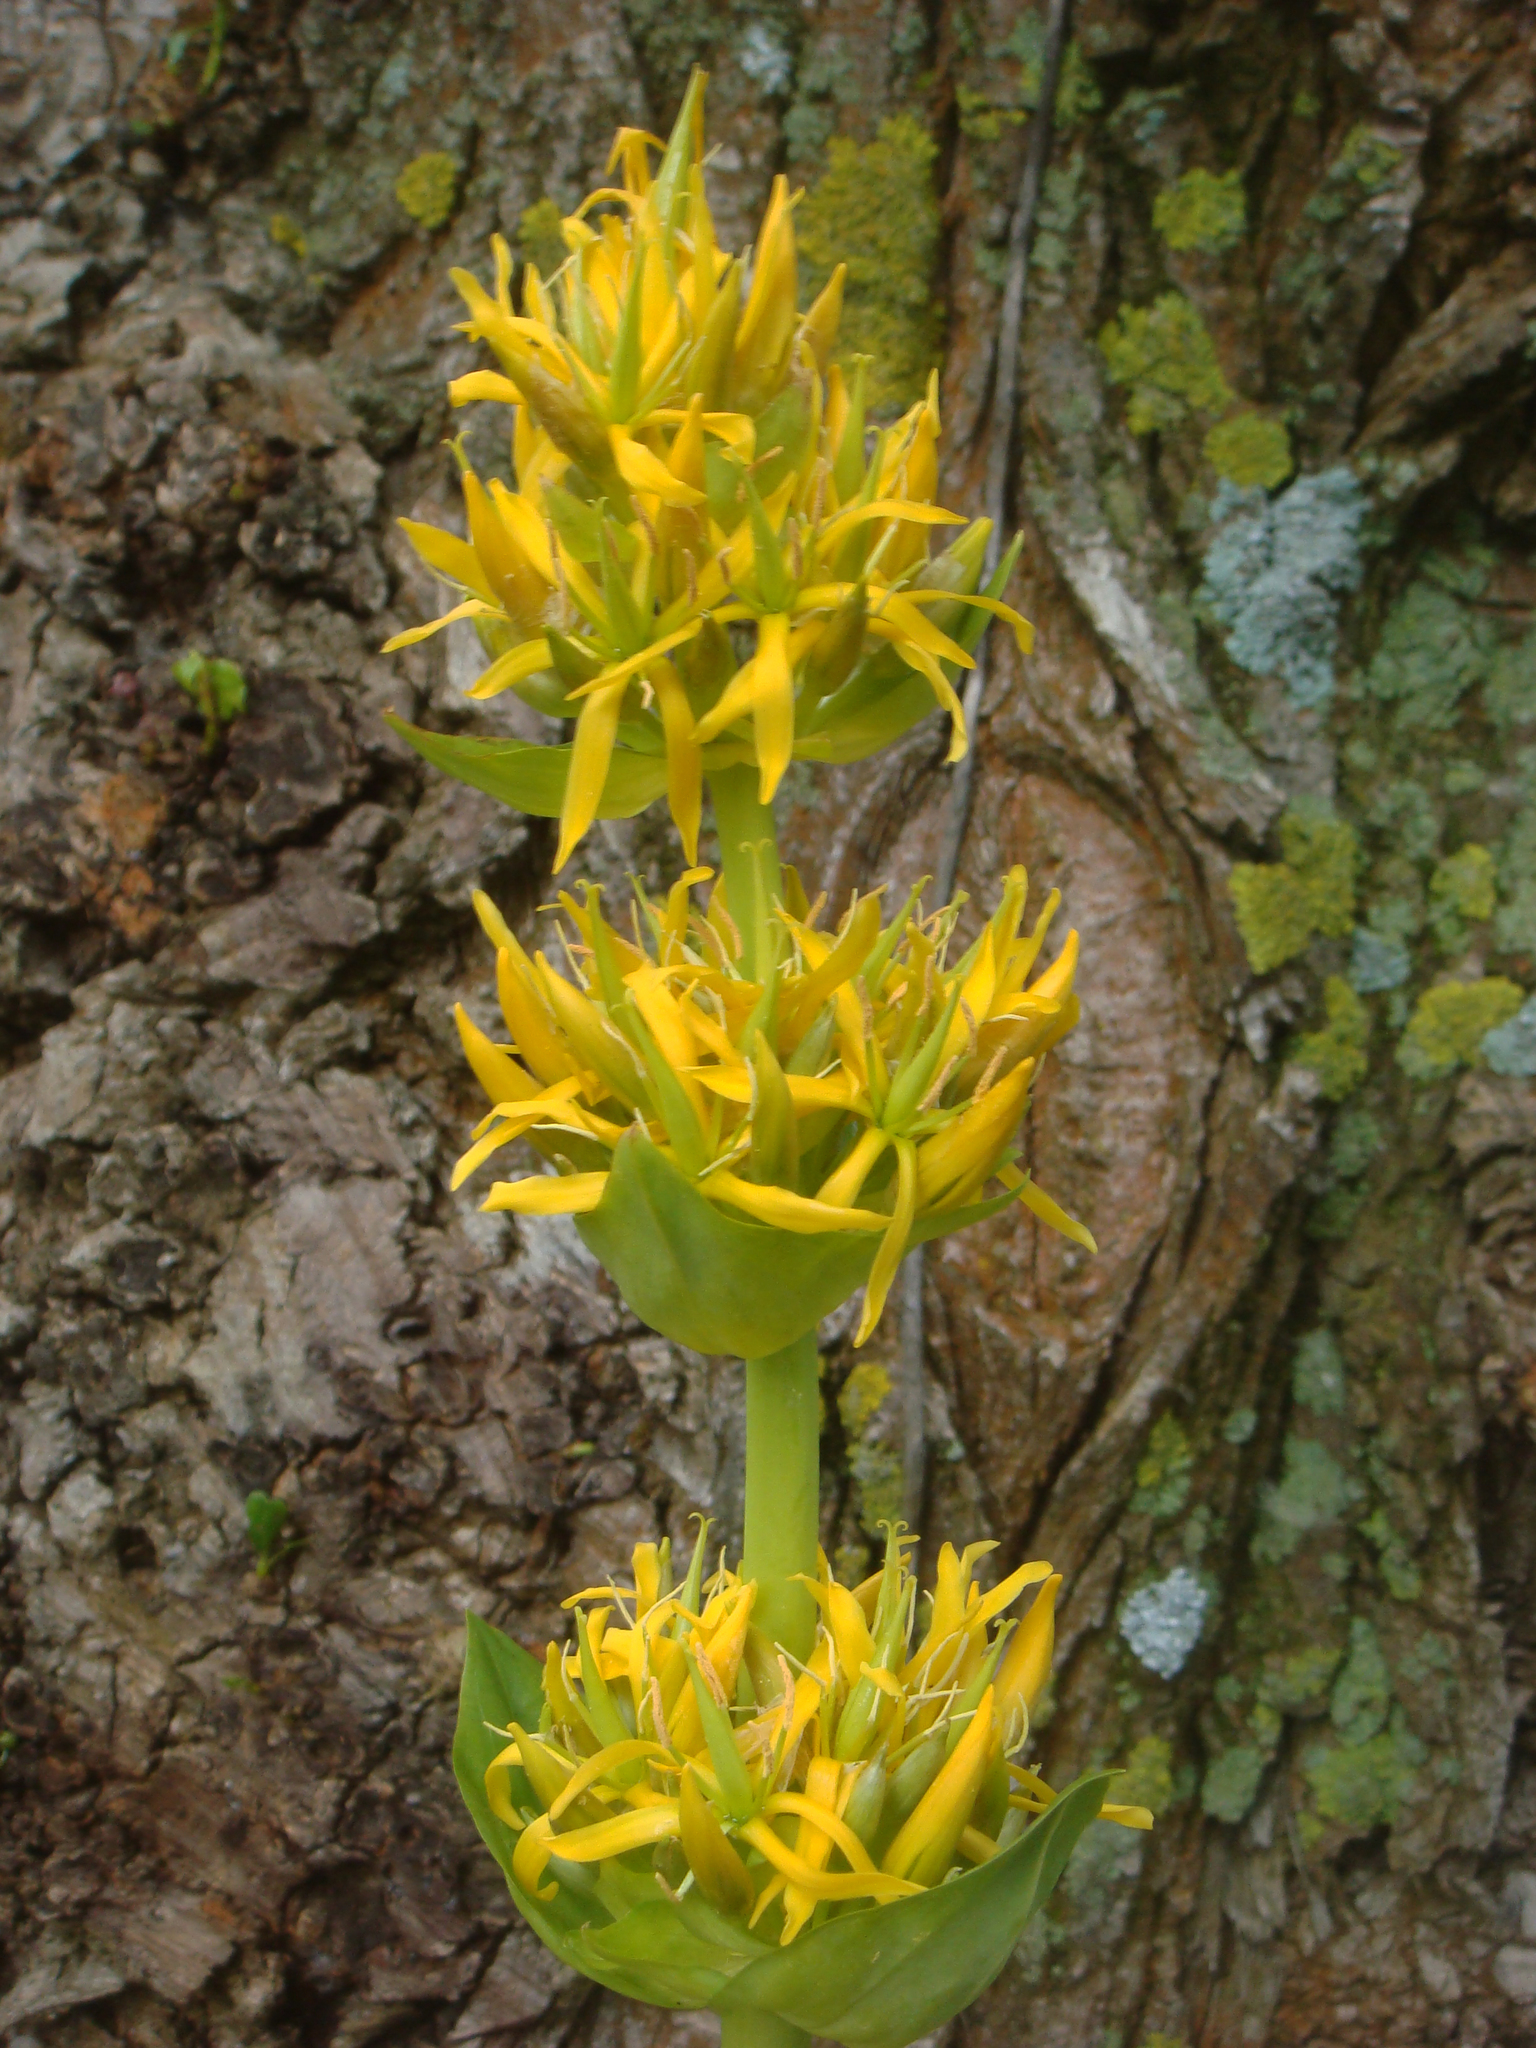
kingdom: Plantae
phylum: Tracheophyta
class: Magnoliopsida
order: Gentianales
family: Gentianaceae
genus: Gentiana
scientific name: Gentiana lutea
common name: Great yellow gentian
